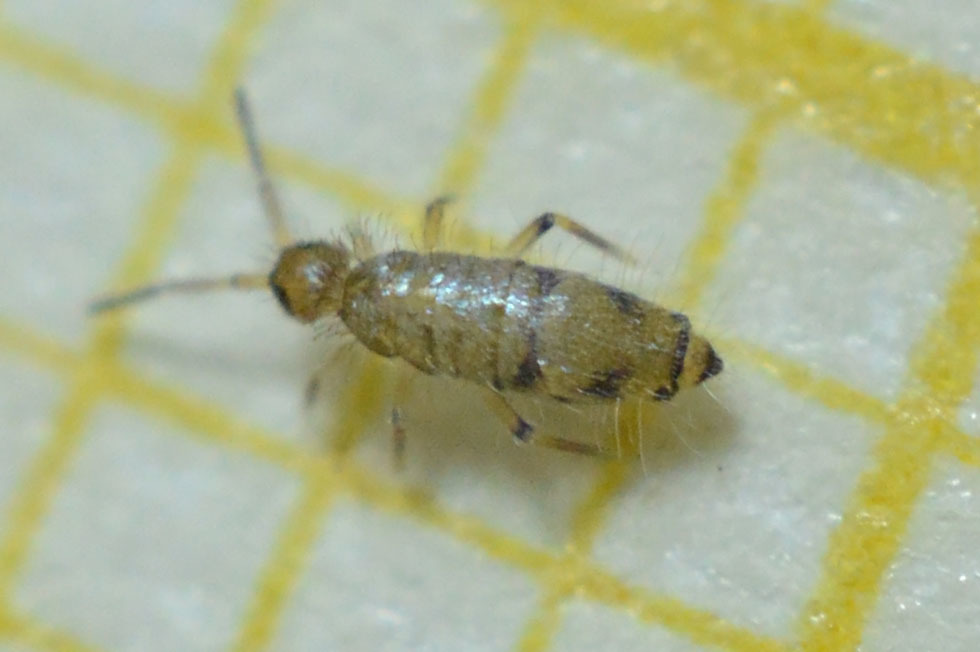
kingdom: Animalia
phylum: Arthropoda
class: Collembola
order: Entomobryomorpha
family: Entomobryidae
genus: Willowsia
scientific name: Willowsia nigromaculata
